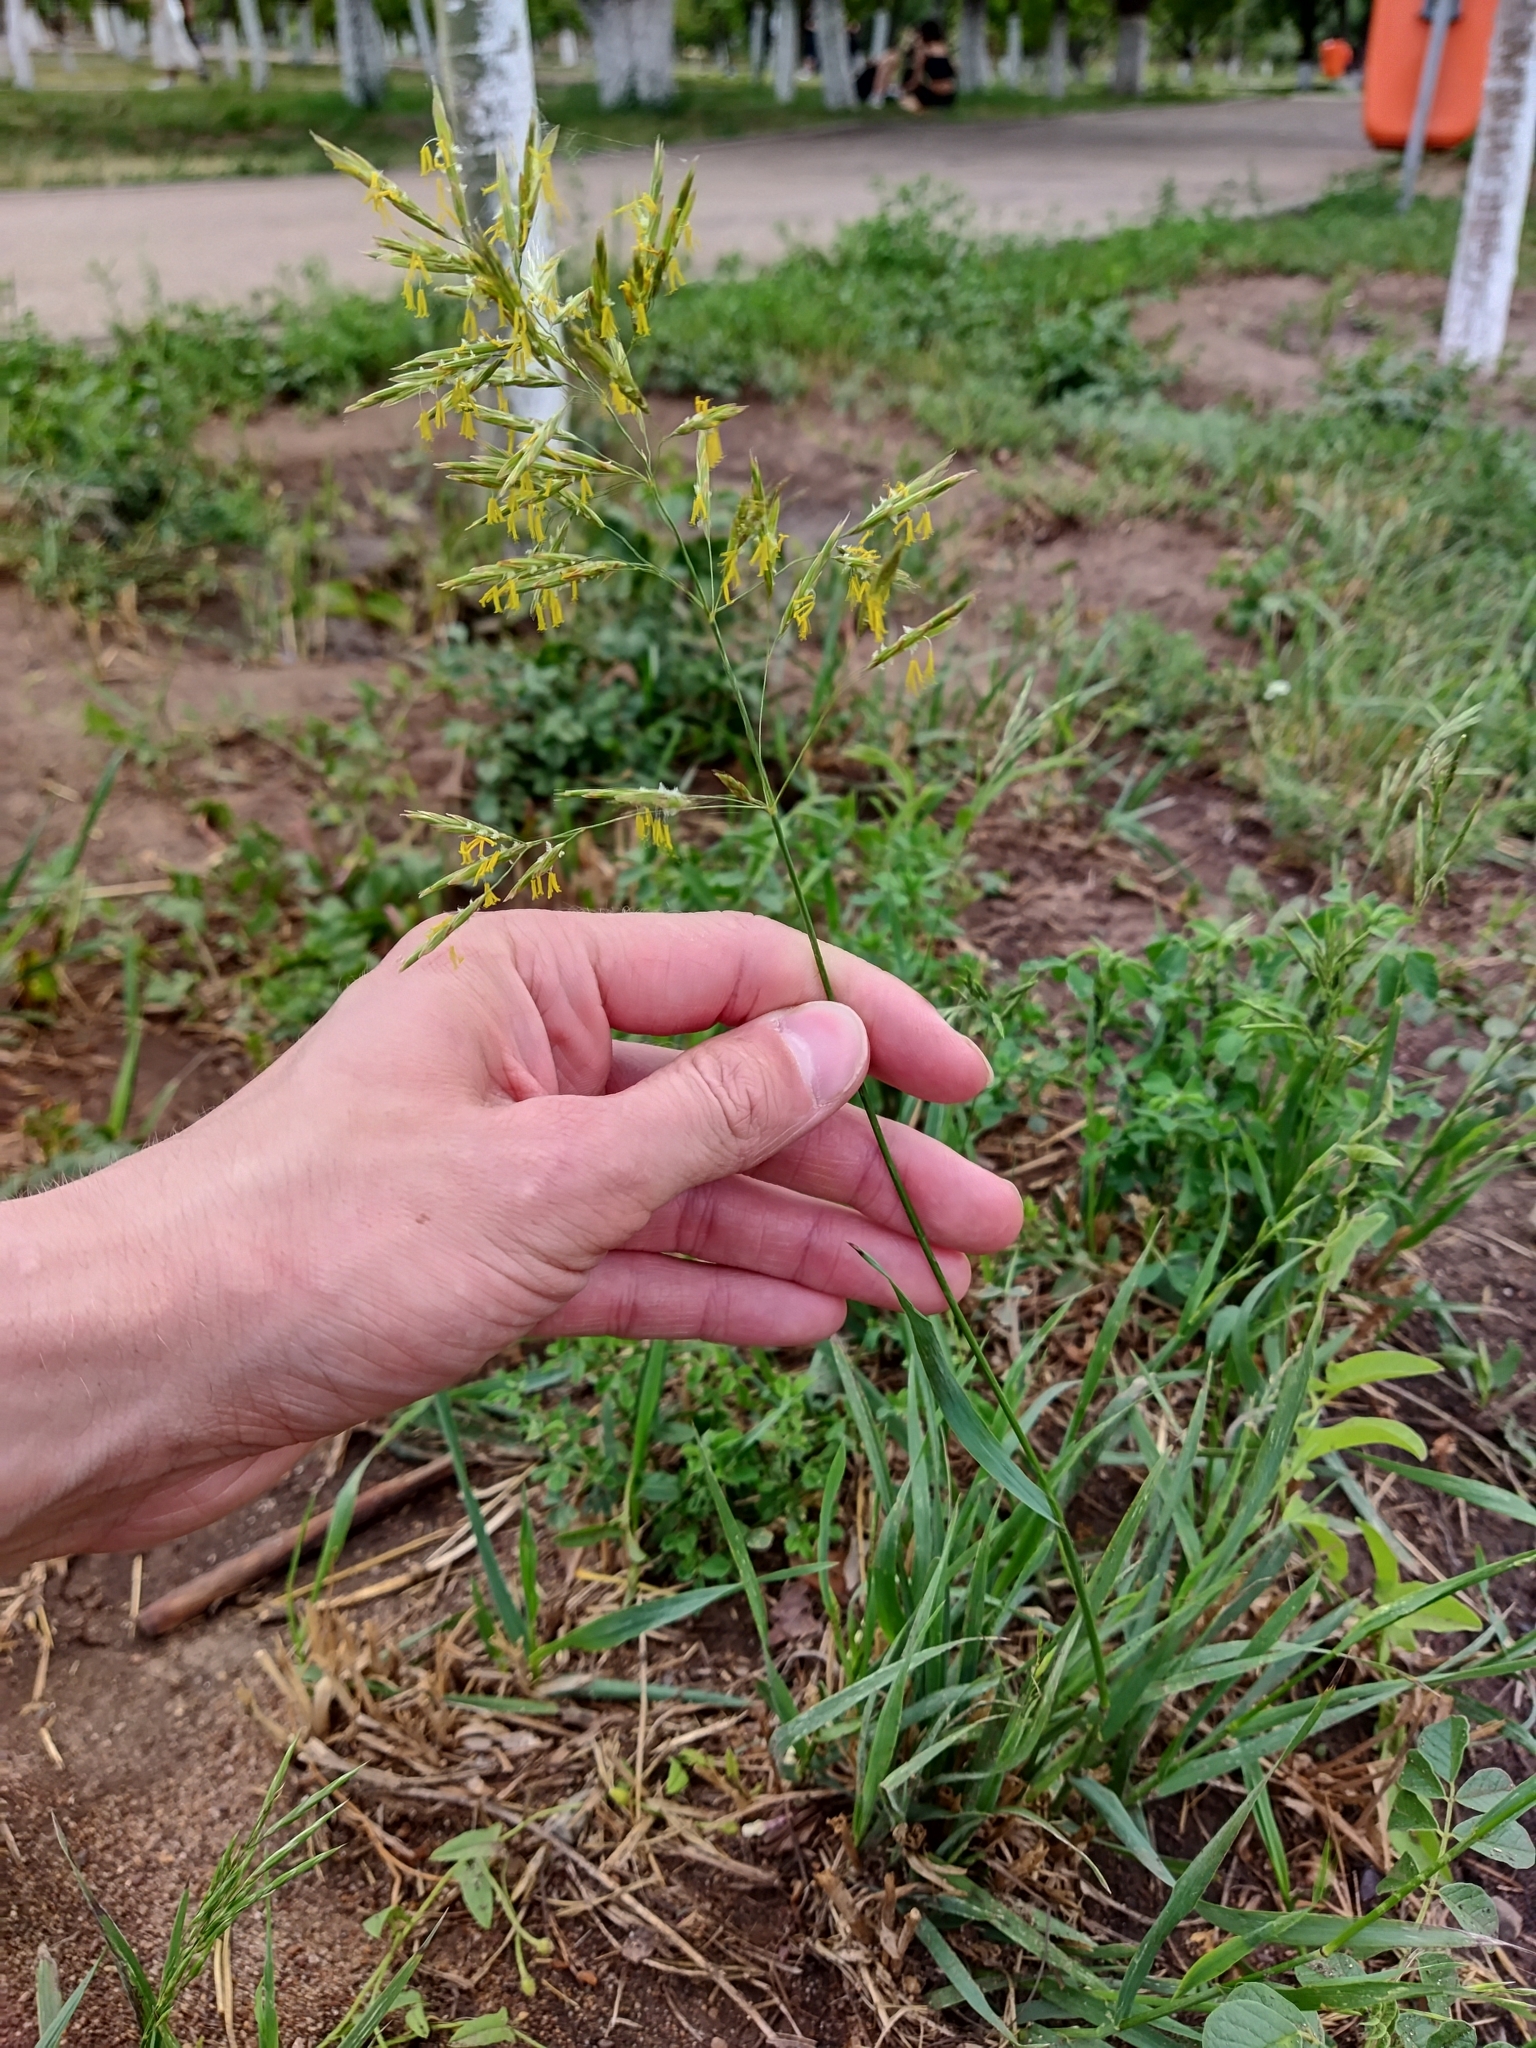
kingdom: Plantae
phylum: Tracheophyta
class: Liliopsida
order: Poales
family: Poaceae
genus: Bromus
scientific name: Bromus inermis
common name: Smooth brome
